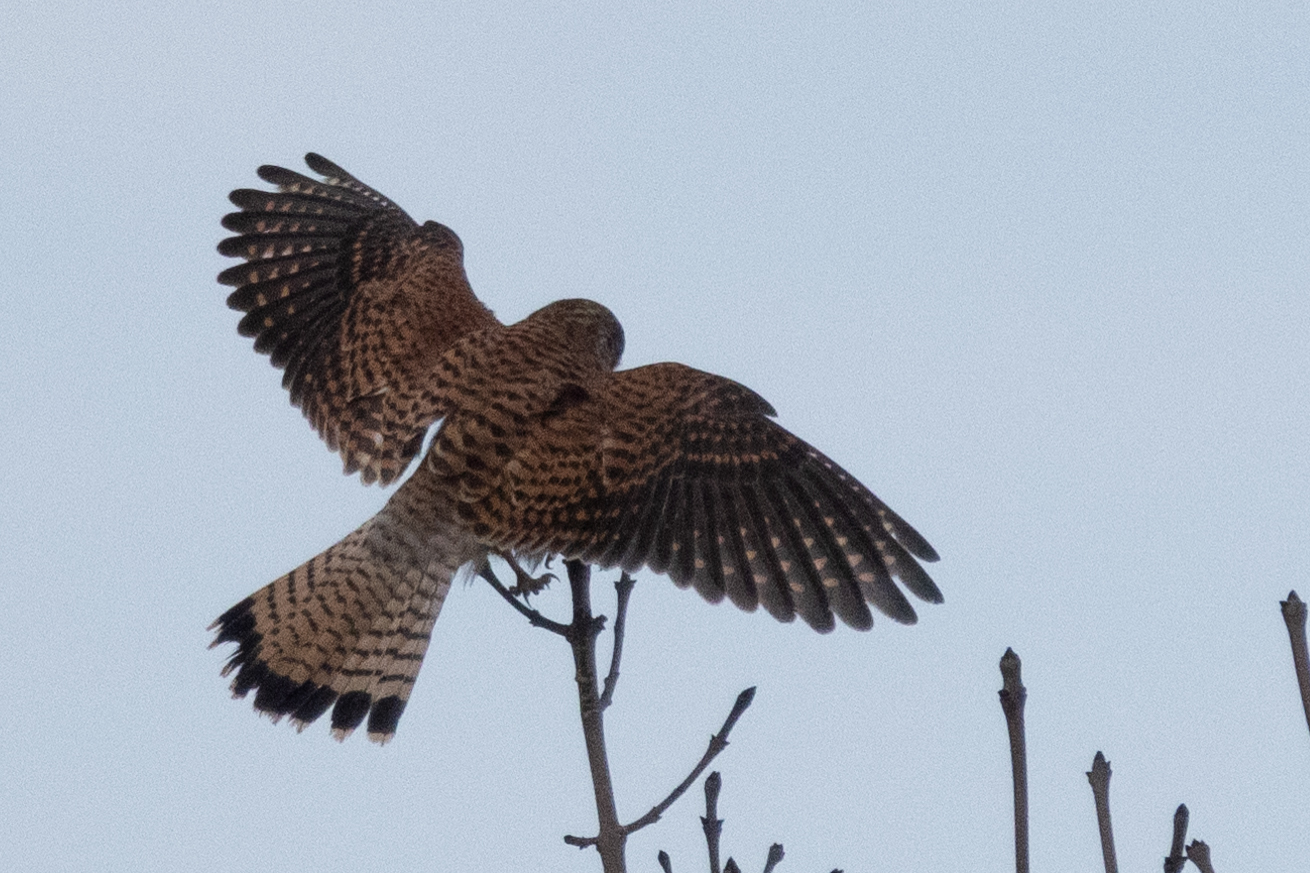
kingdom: Animalia
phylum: Chordata
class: Aves
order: Falconiformes
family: Falconidae
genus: Falco
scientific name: Falco tinnunculus
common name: Common kestrel
